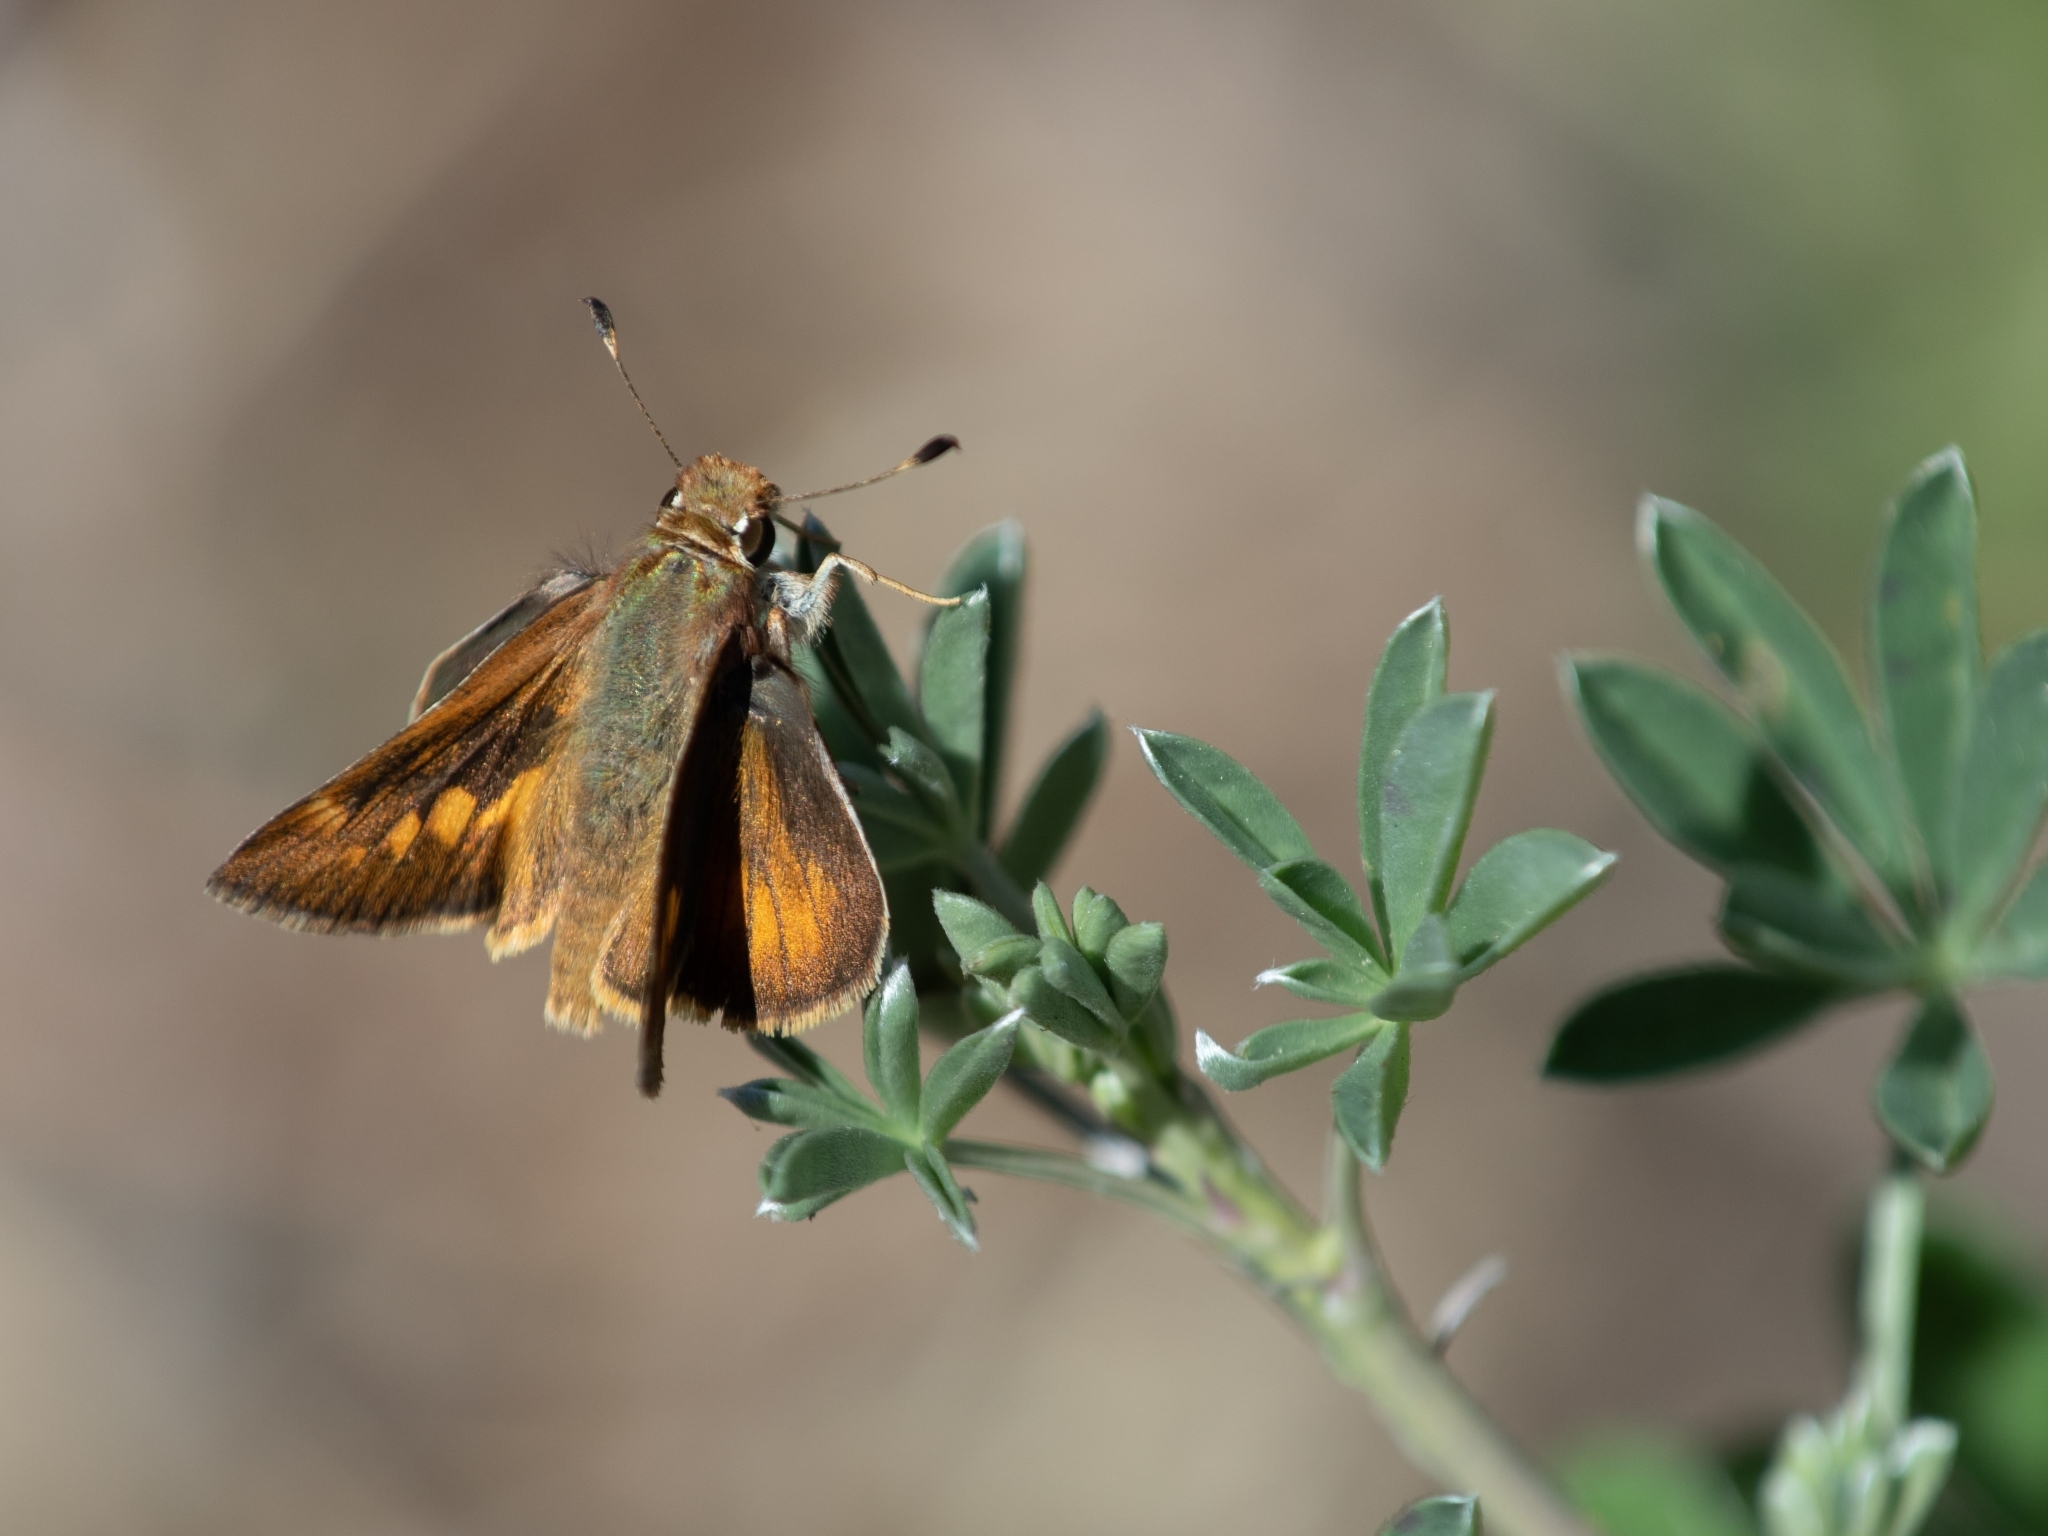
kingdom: Animalia
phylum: Arthropoda
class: Insecta
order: Lepidoptera
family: Hesperiidae
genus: Lon
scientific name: Lon melane
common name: Umber skipper
